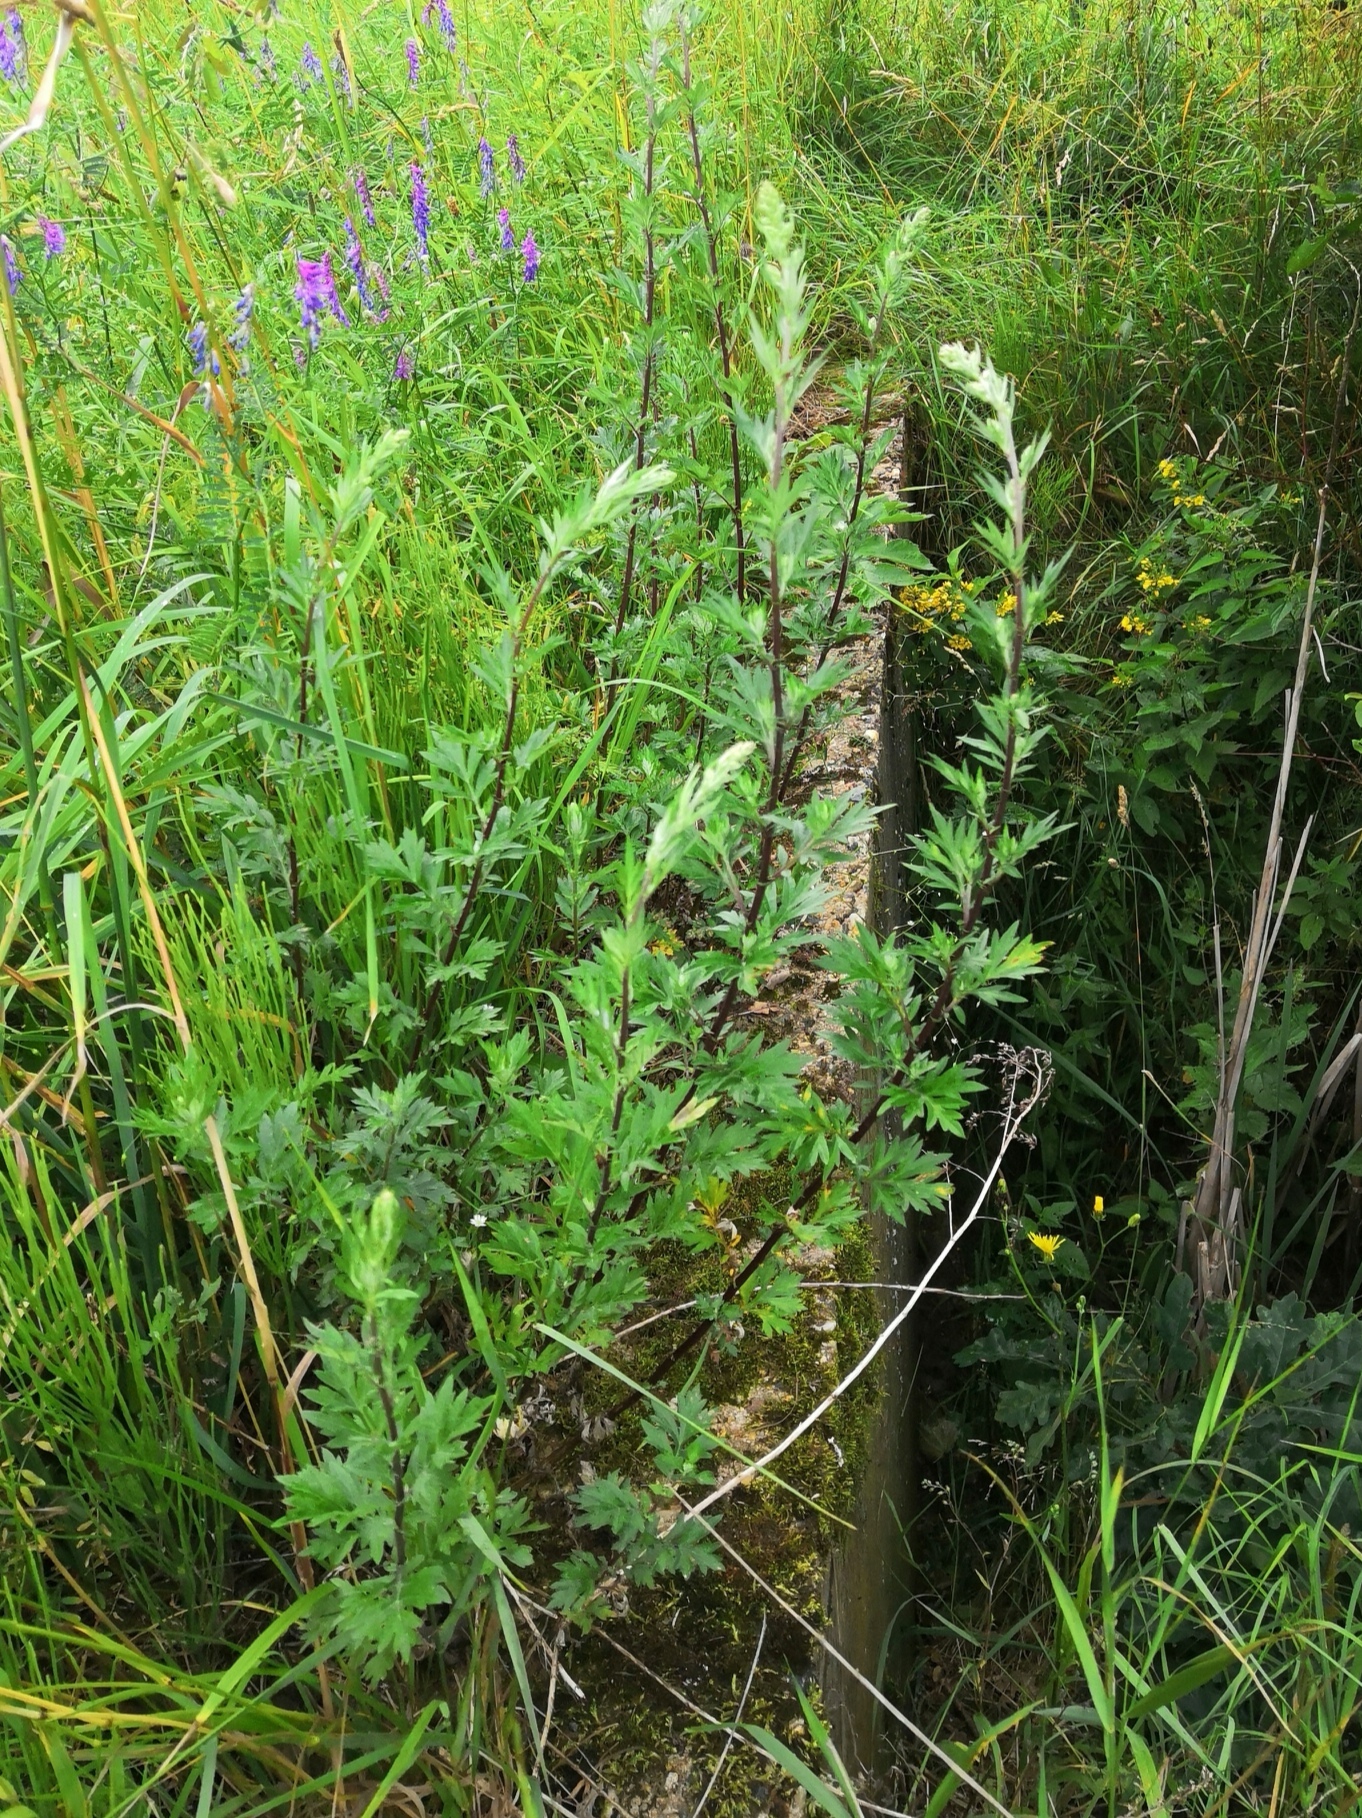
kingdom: Plantae
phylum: Tracheophyta
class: Magnoliopsida
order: Asterales
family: Asteraceae
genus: Artemisia
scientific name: Artemisia vulgaris
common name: Mugwort
